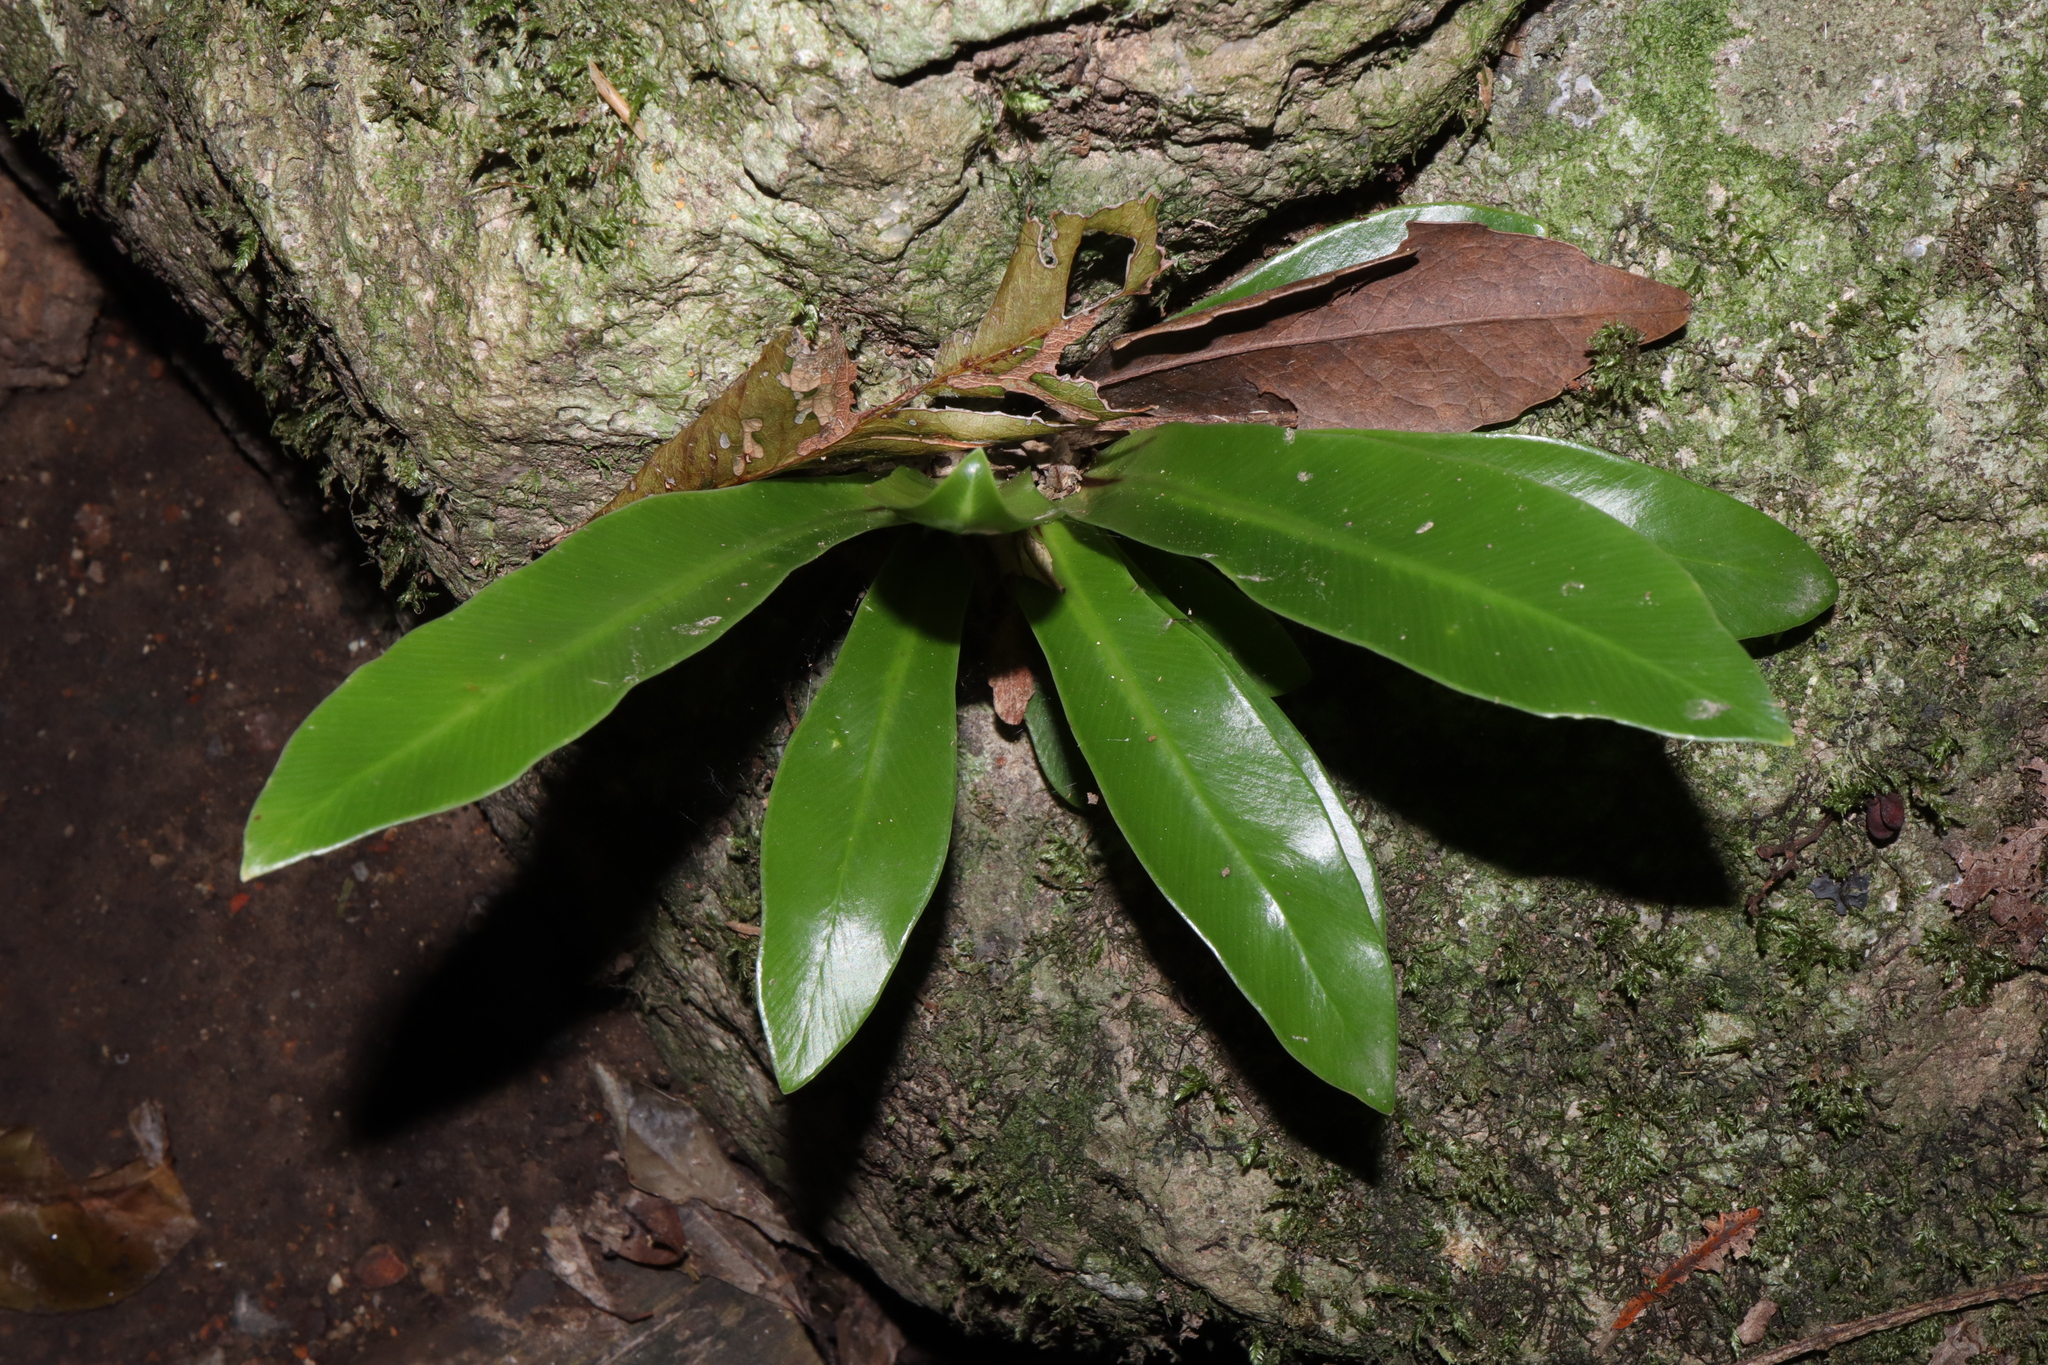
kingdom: Plantae
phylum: Tracheophyta
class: Polypodiopsida
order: Polypodiales
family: Aspleniaceae
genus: Asplenium
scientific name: Asplenium australasicum
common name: Bird's-nest fern
